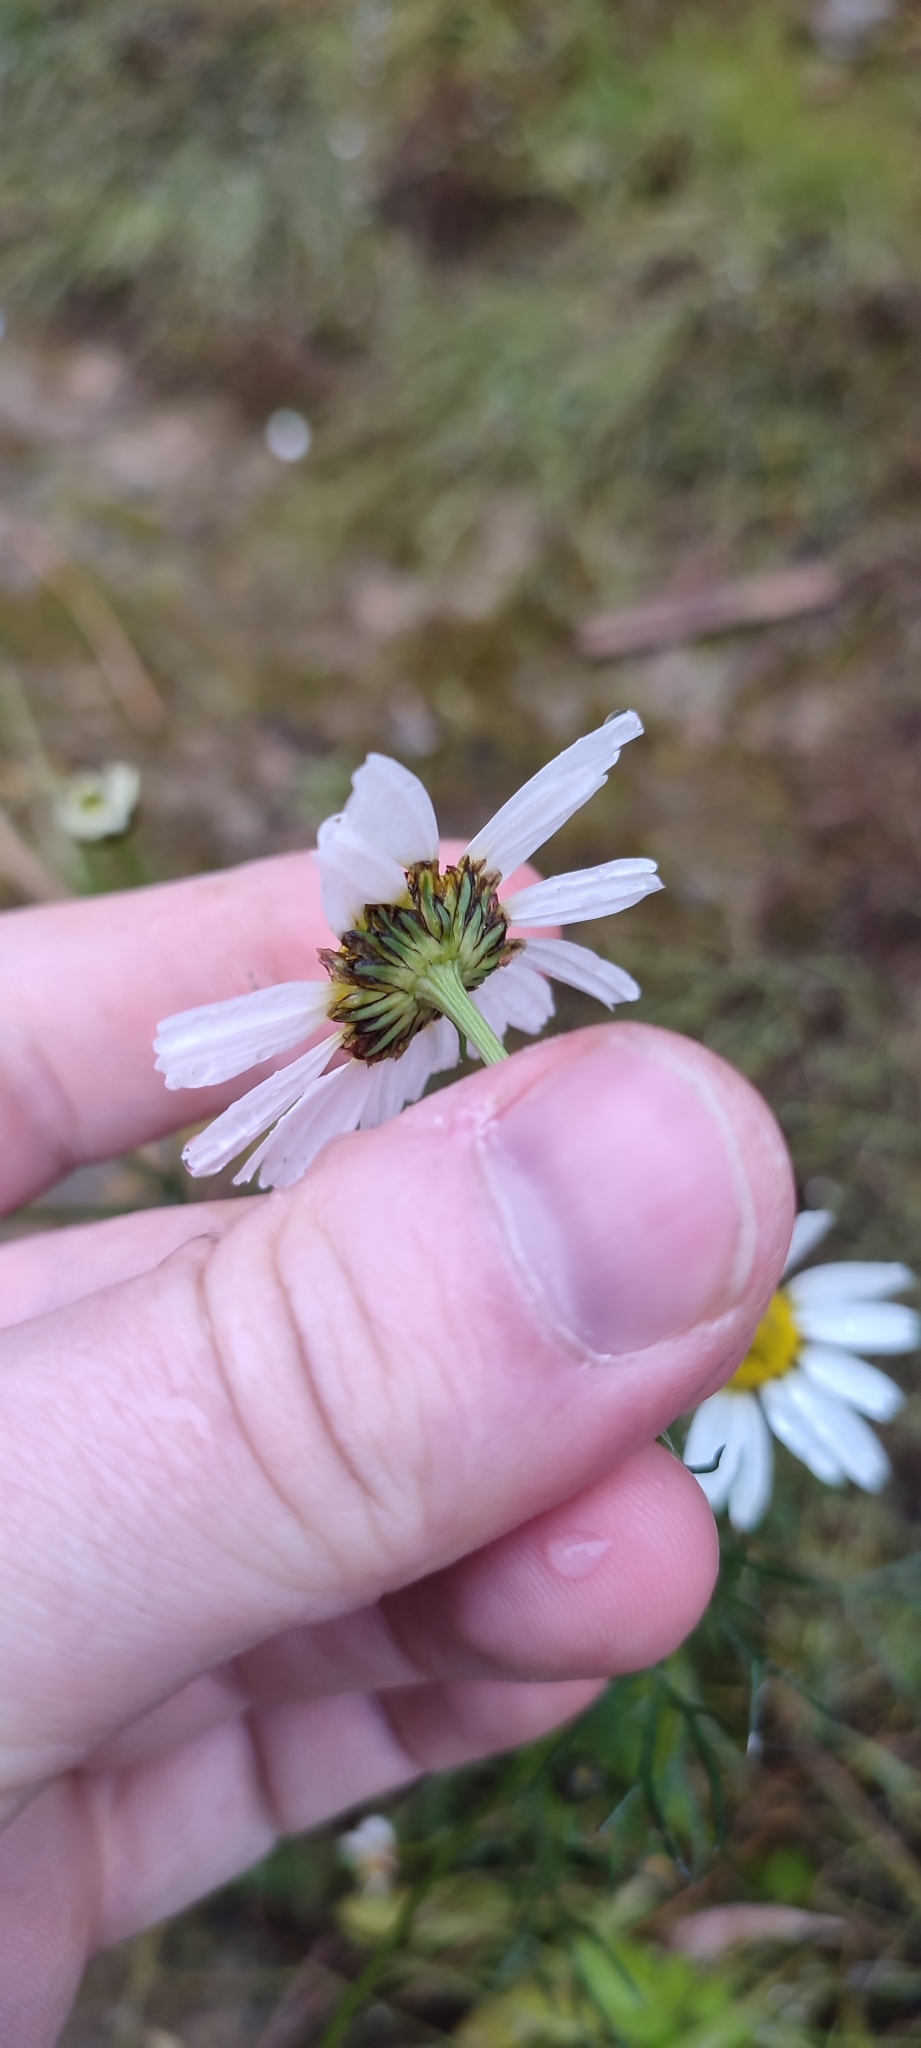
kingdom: Plantae
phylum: Tracheophyta
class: Magnoliopsida
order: Asterales
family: Asteraceae
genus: Tripleurospermum
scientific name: Tripleurospermum hookeri
